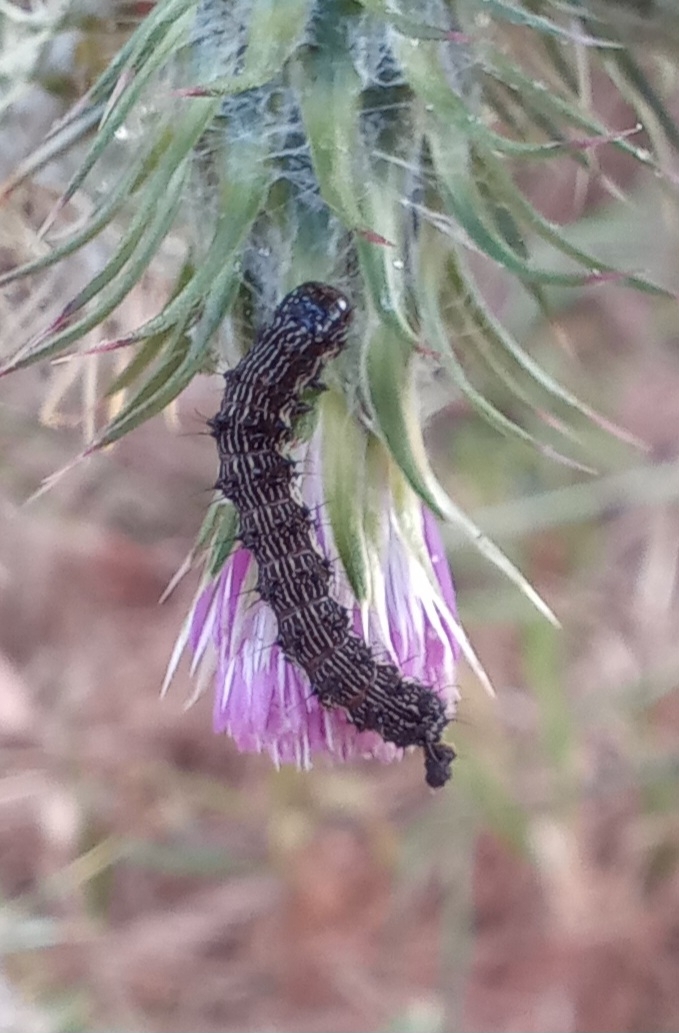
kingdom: Animalia
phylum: Arthropoda
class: Insecta
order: Lepidoptera
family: Noctuidae
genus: Helicoverpa
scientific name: Helicoverpa armigera
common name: Cotton bollworm
